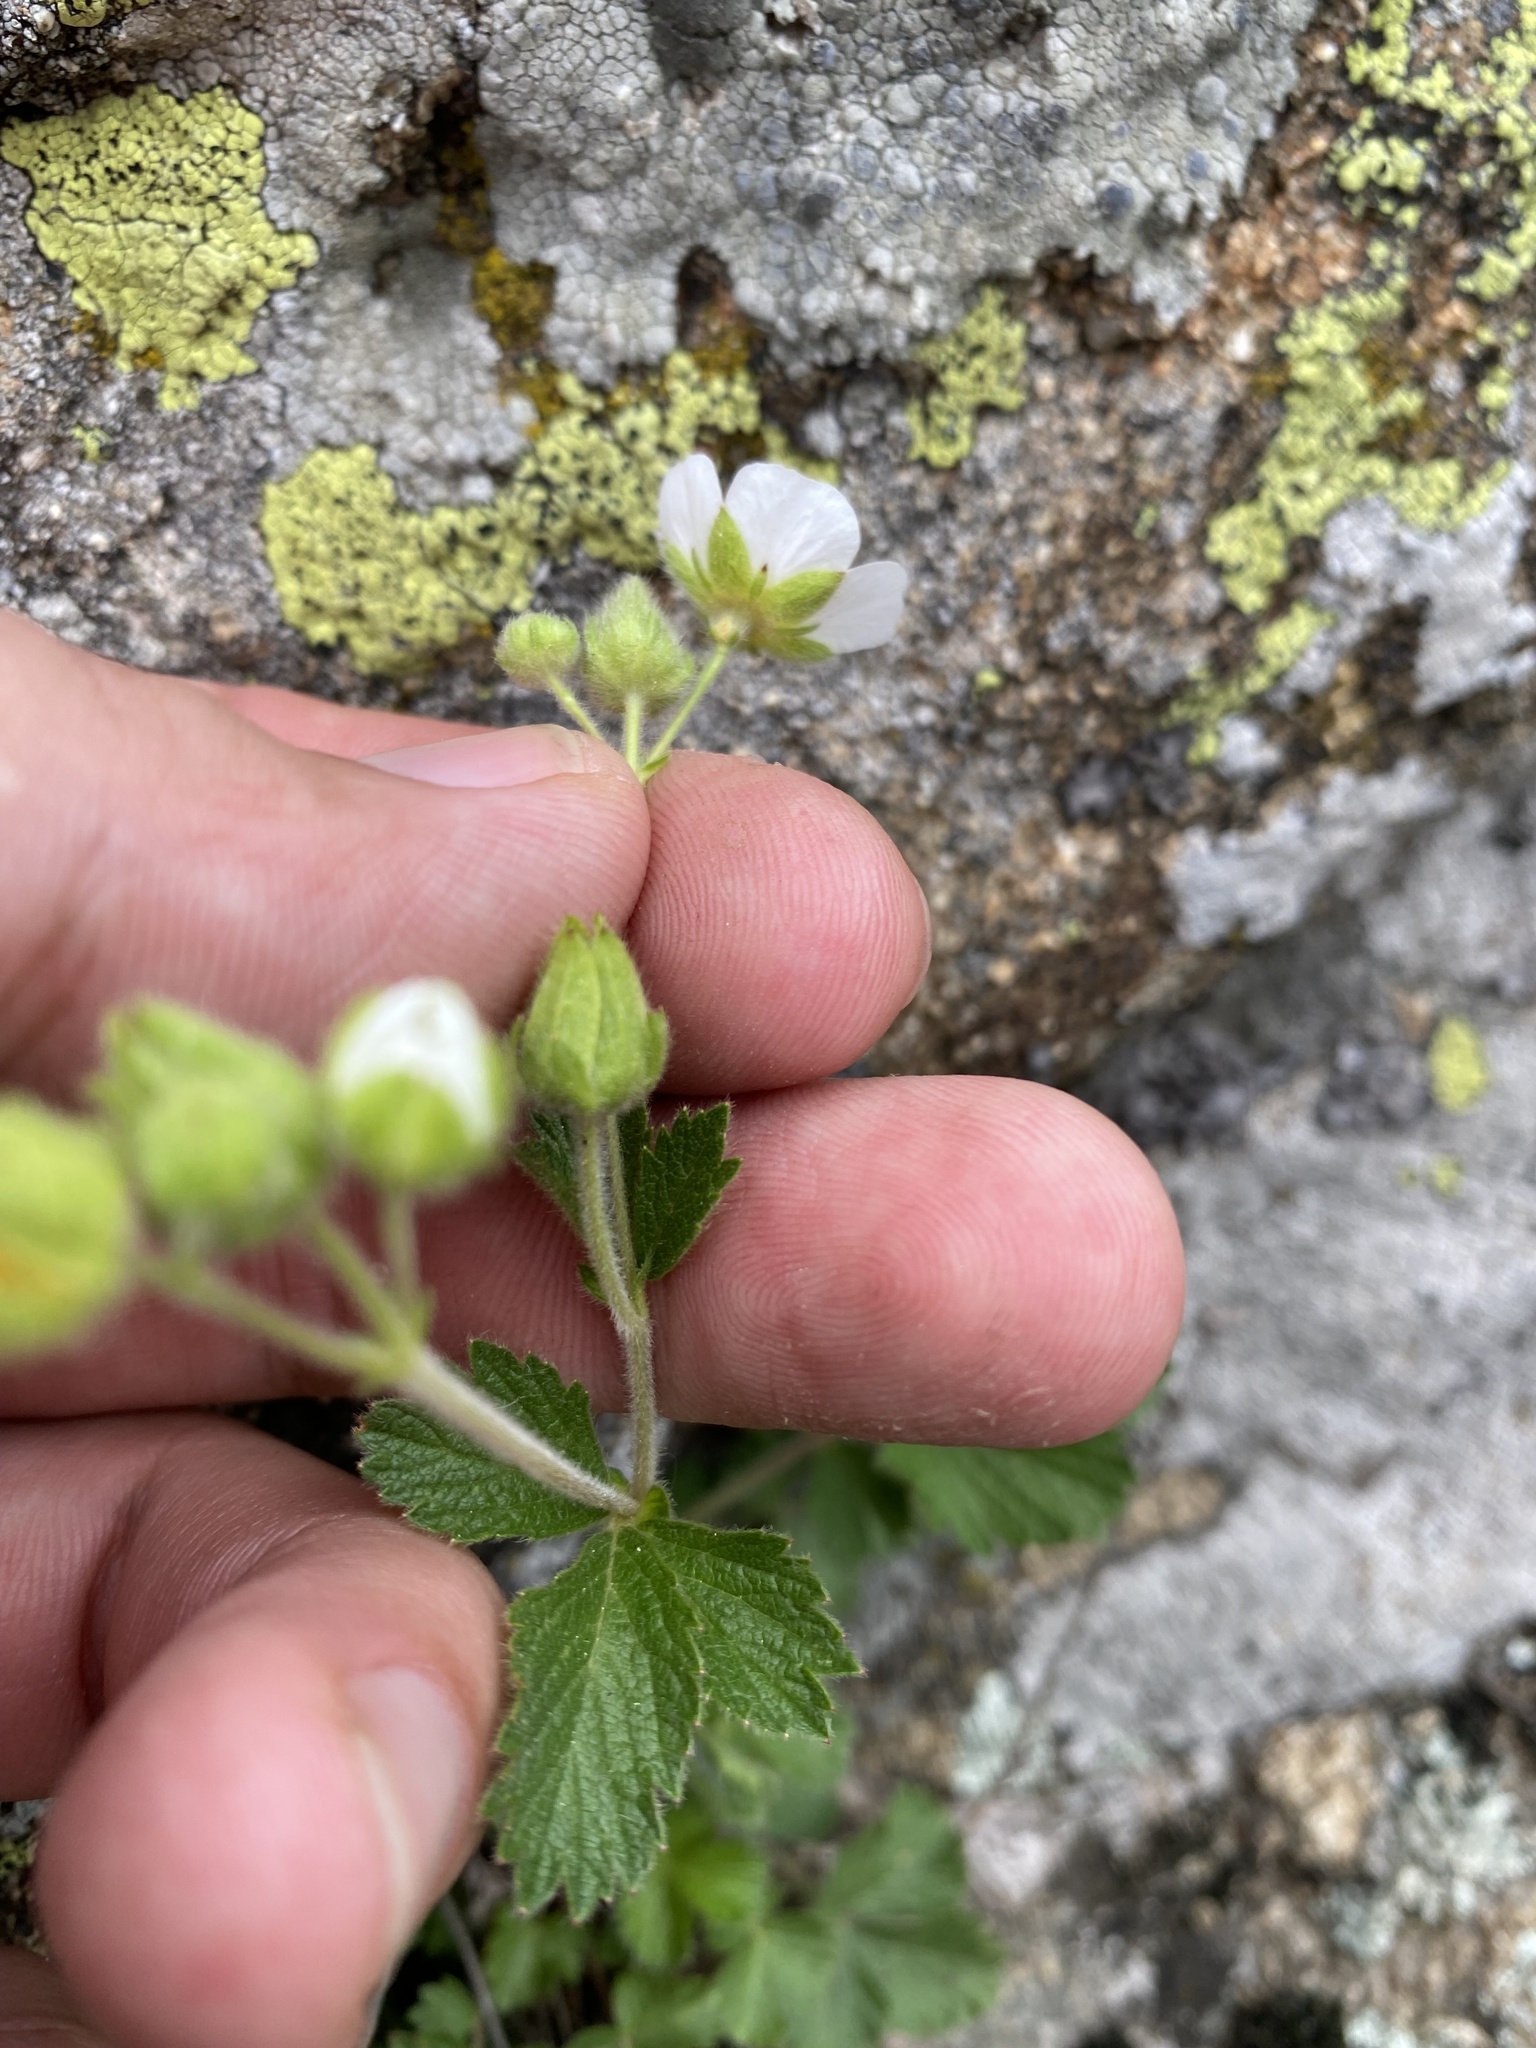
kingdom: Plantae
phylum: Tracheophyta
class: Magnoliopsida
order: Rosales
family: Rosaceae
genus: Drymocallis
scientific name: Drymocallis rupestris
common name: Rock cinquefoil
